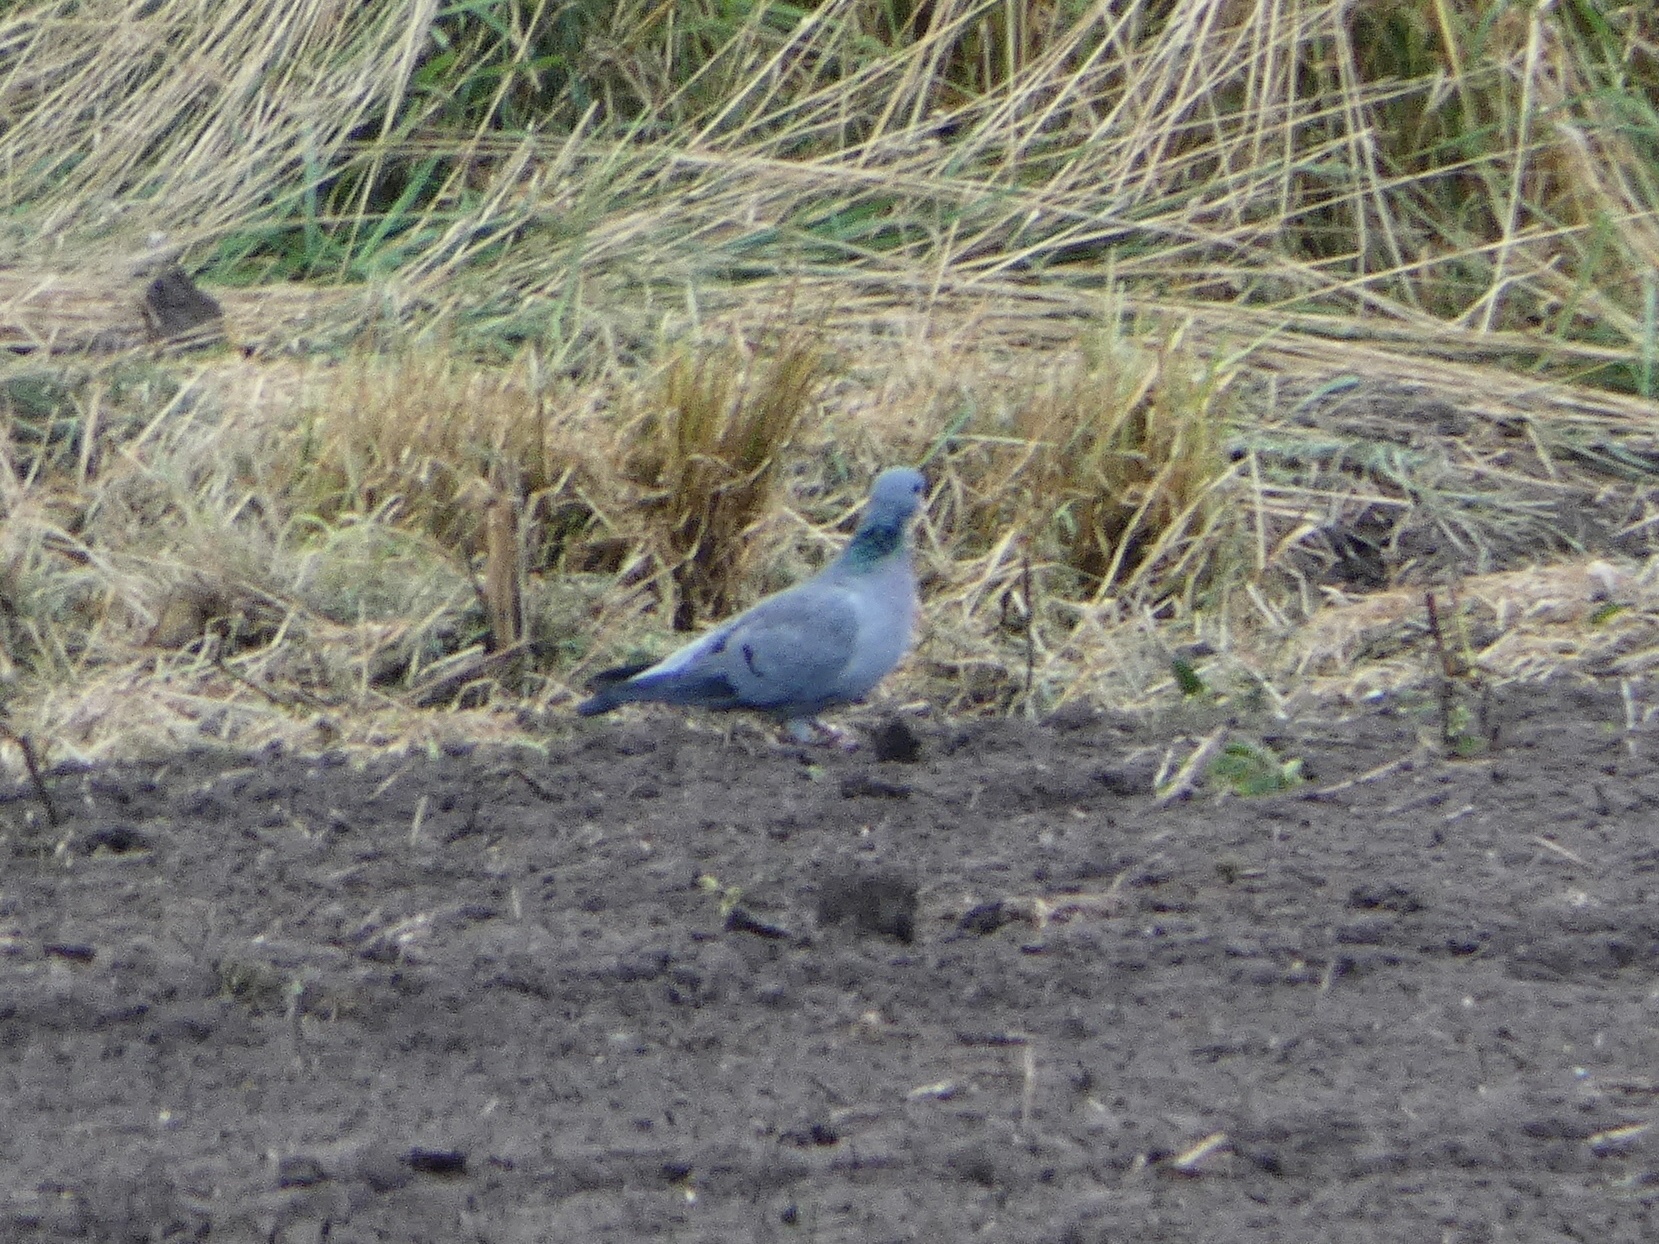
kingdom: Animalia
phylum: Chordata
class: Aves
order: Columbiformes
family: Columbidae
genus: Columba
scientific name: Columba oenas
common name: Stock dove
